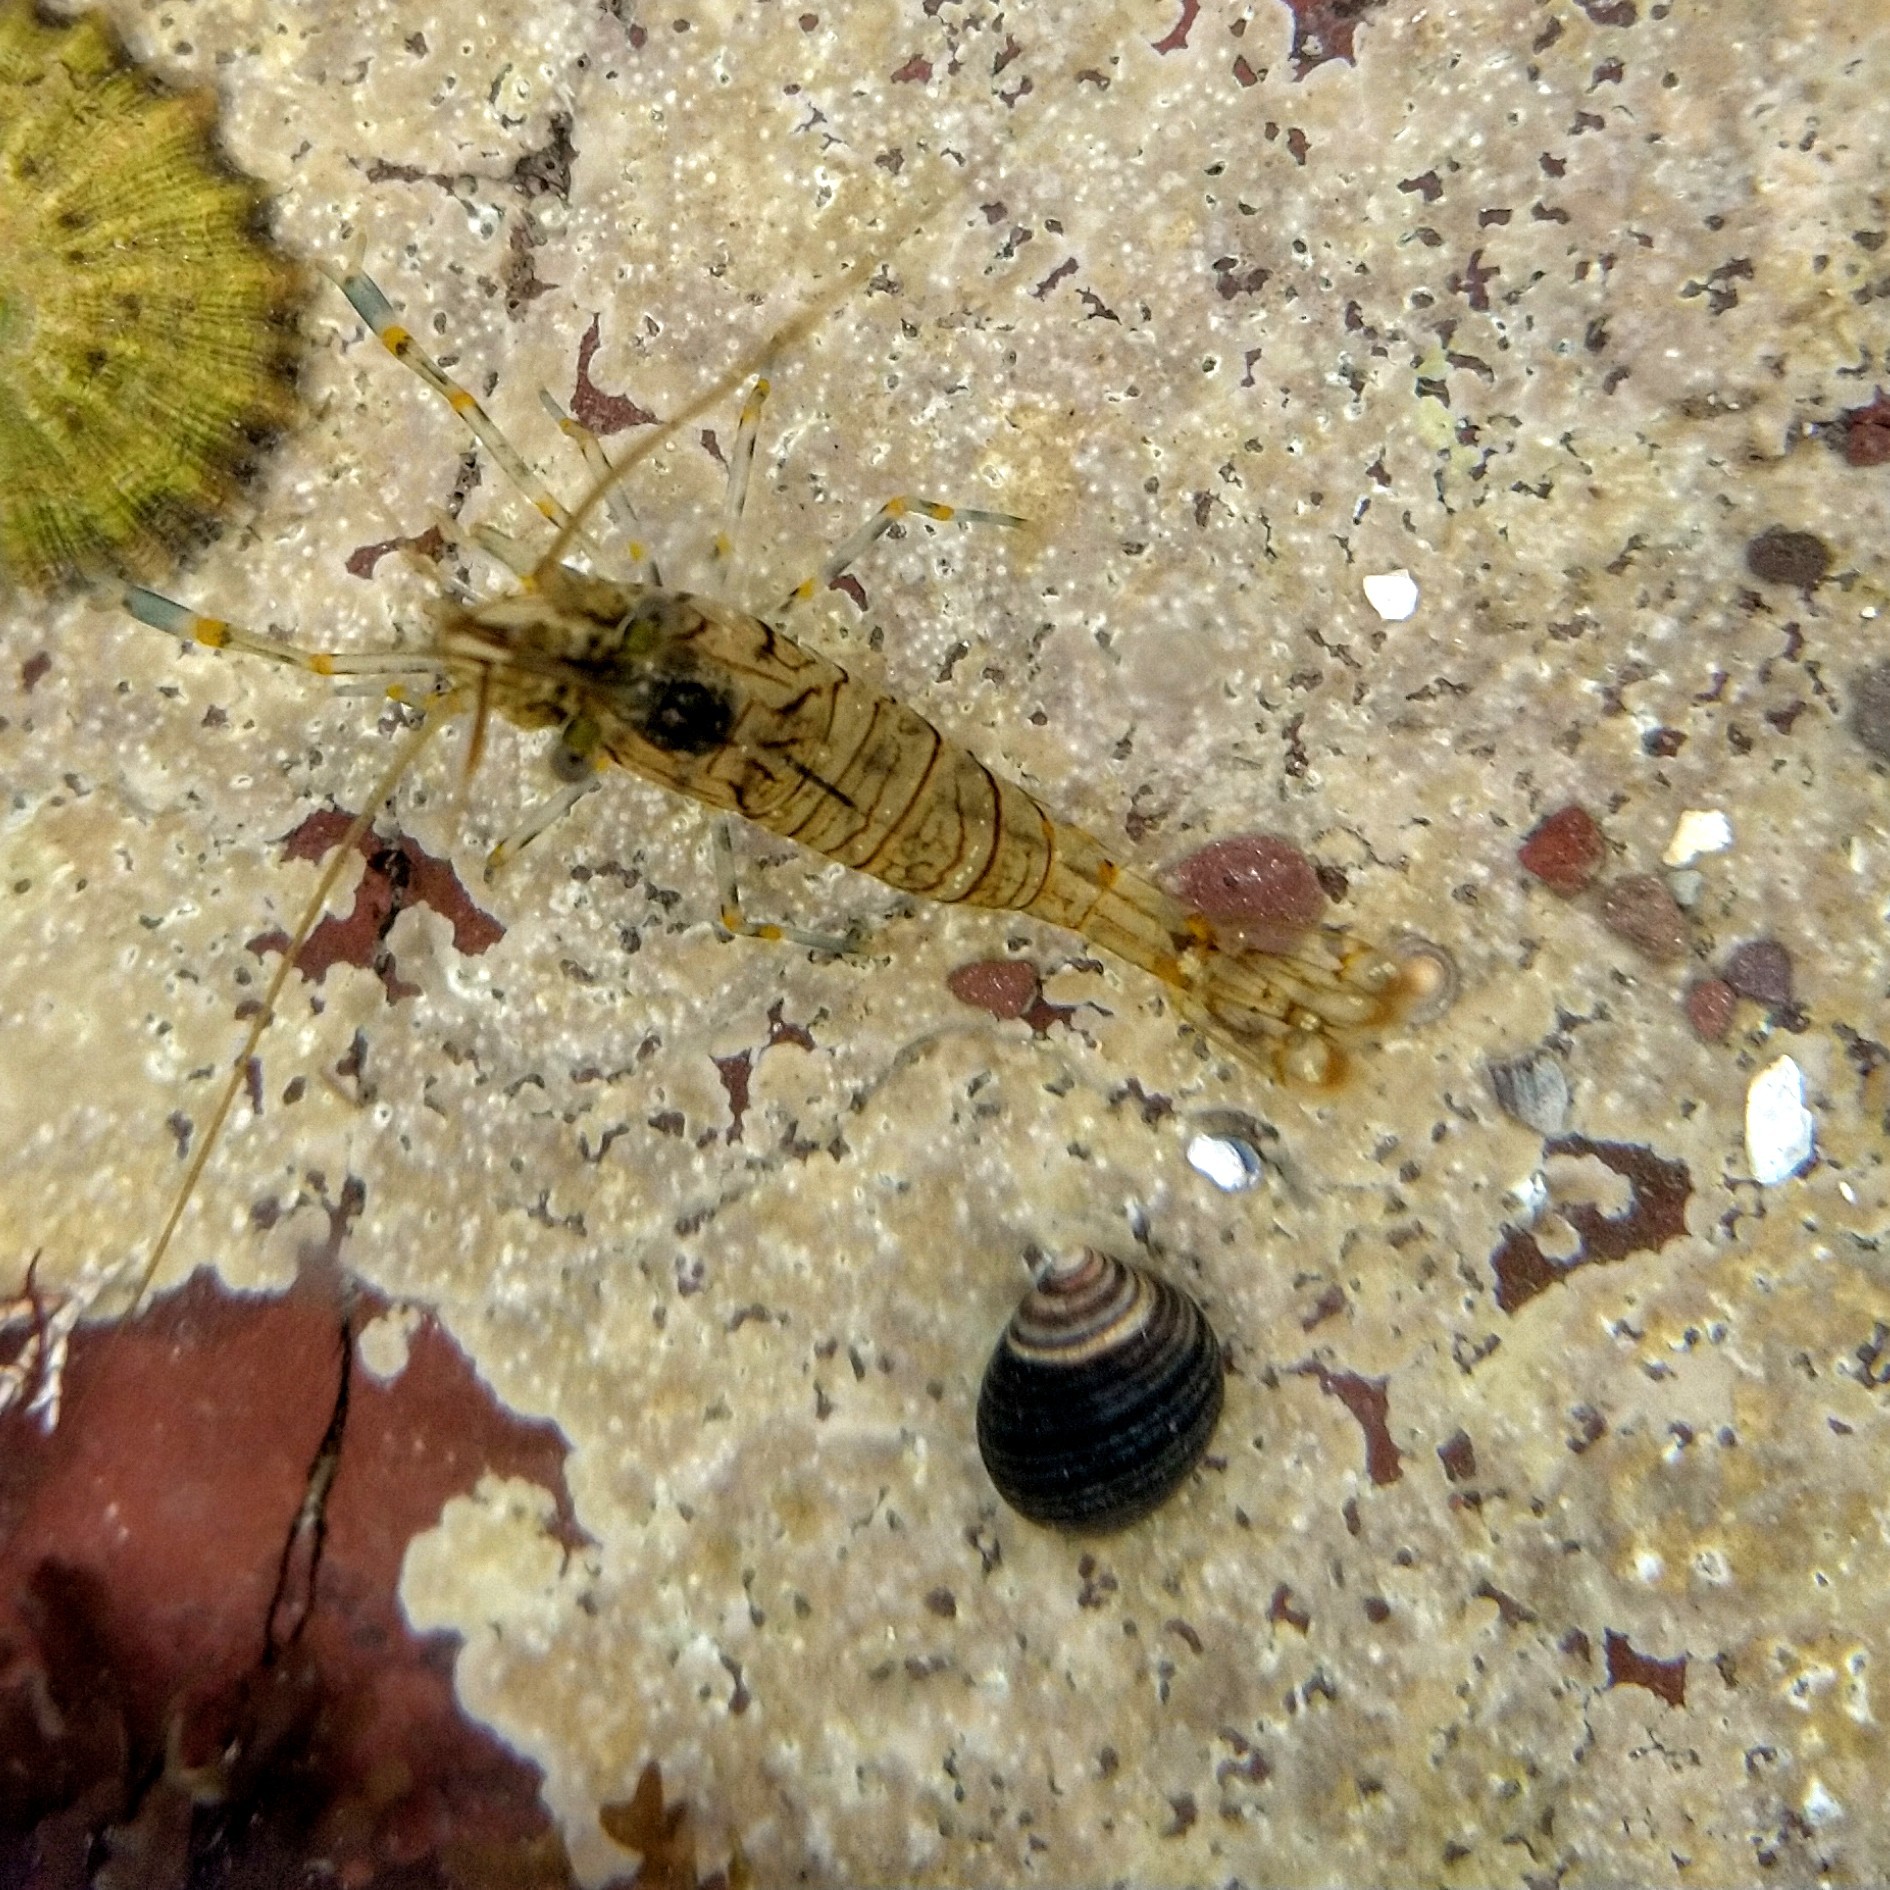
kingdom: Animalia
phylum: Arthropoda
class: Malacostraca
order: Decapoda
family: Palaemonidae
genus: Palaemon
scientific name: Palaemon elegans
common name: Grass prawm
